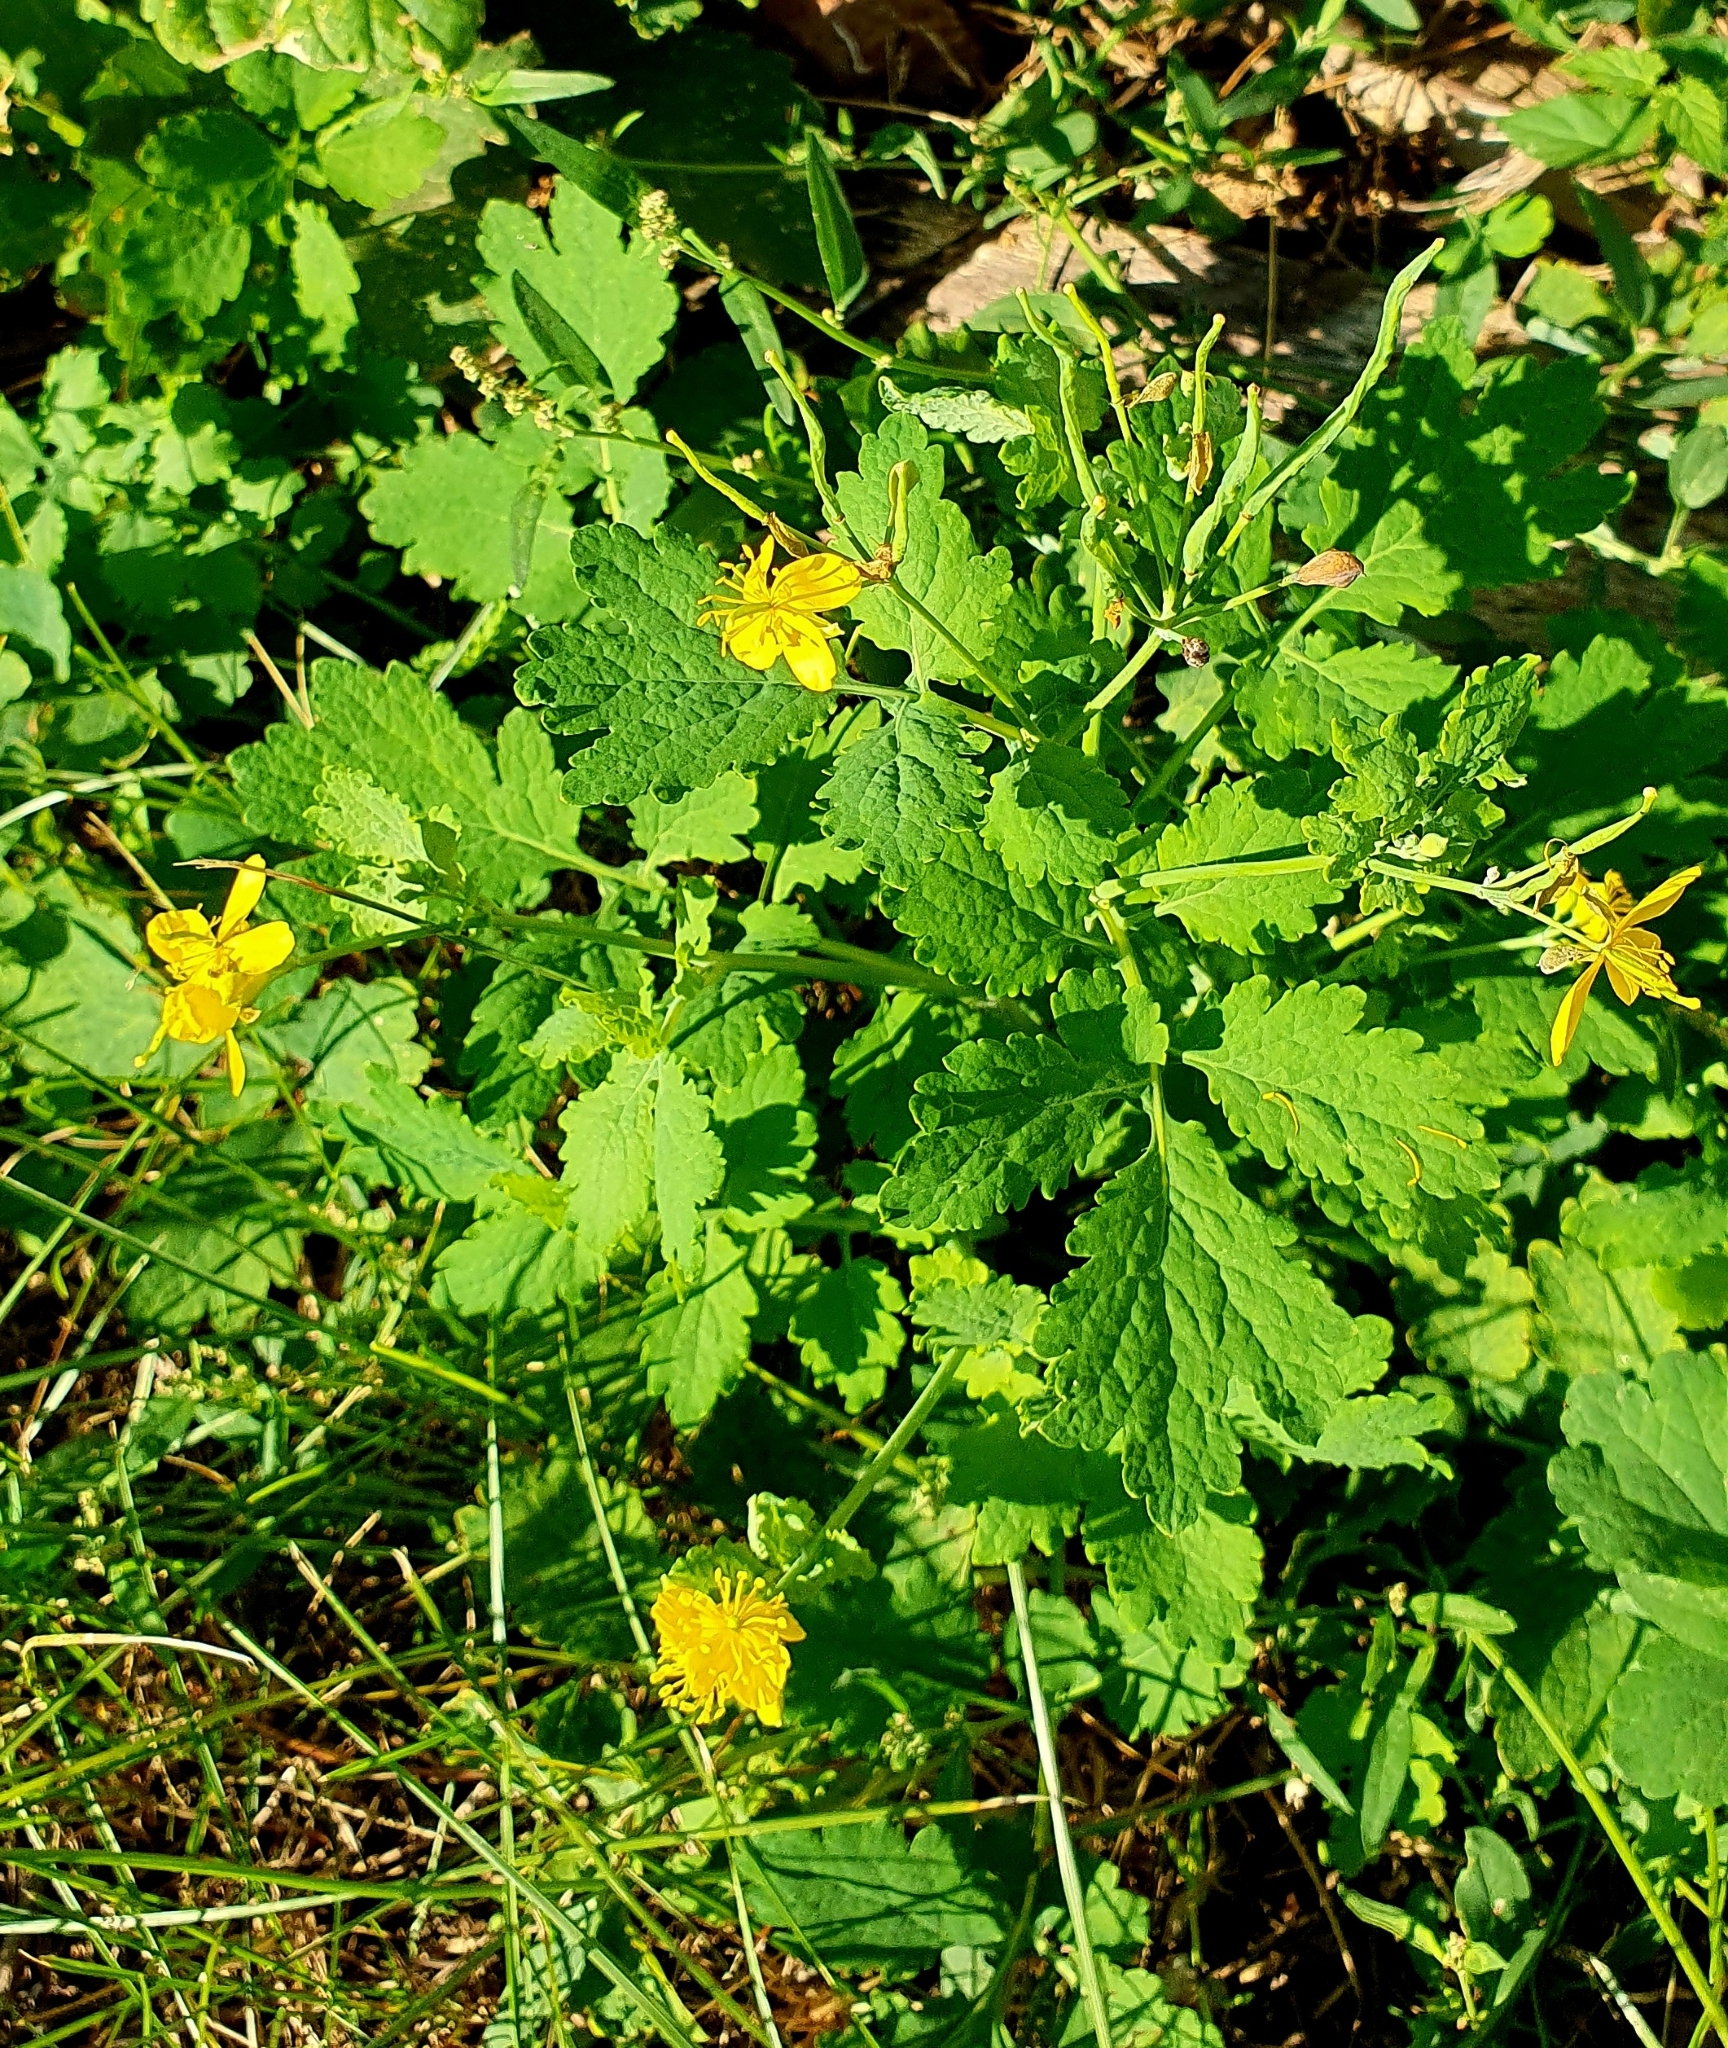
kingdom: Plantae
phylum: Tracheophyta
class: Magnoliopsida
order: Ranunculales
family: Papaveraceae
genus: Chelidonium
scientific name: Chelidonium majus
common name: Greater celandine
